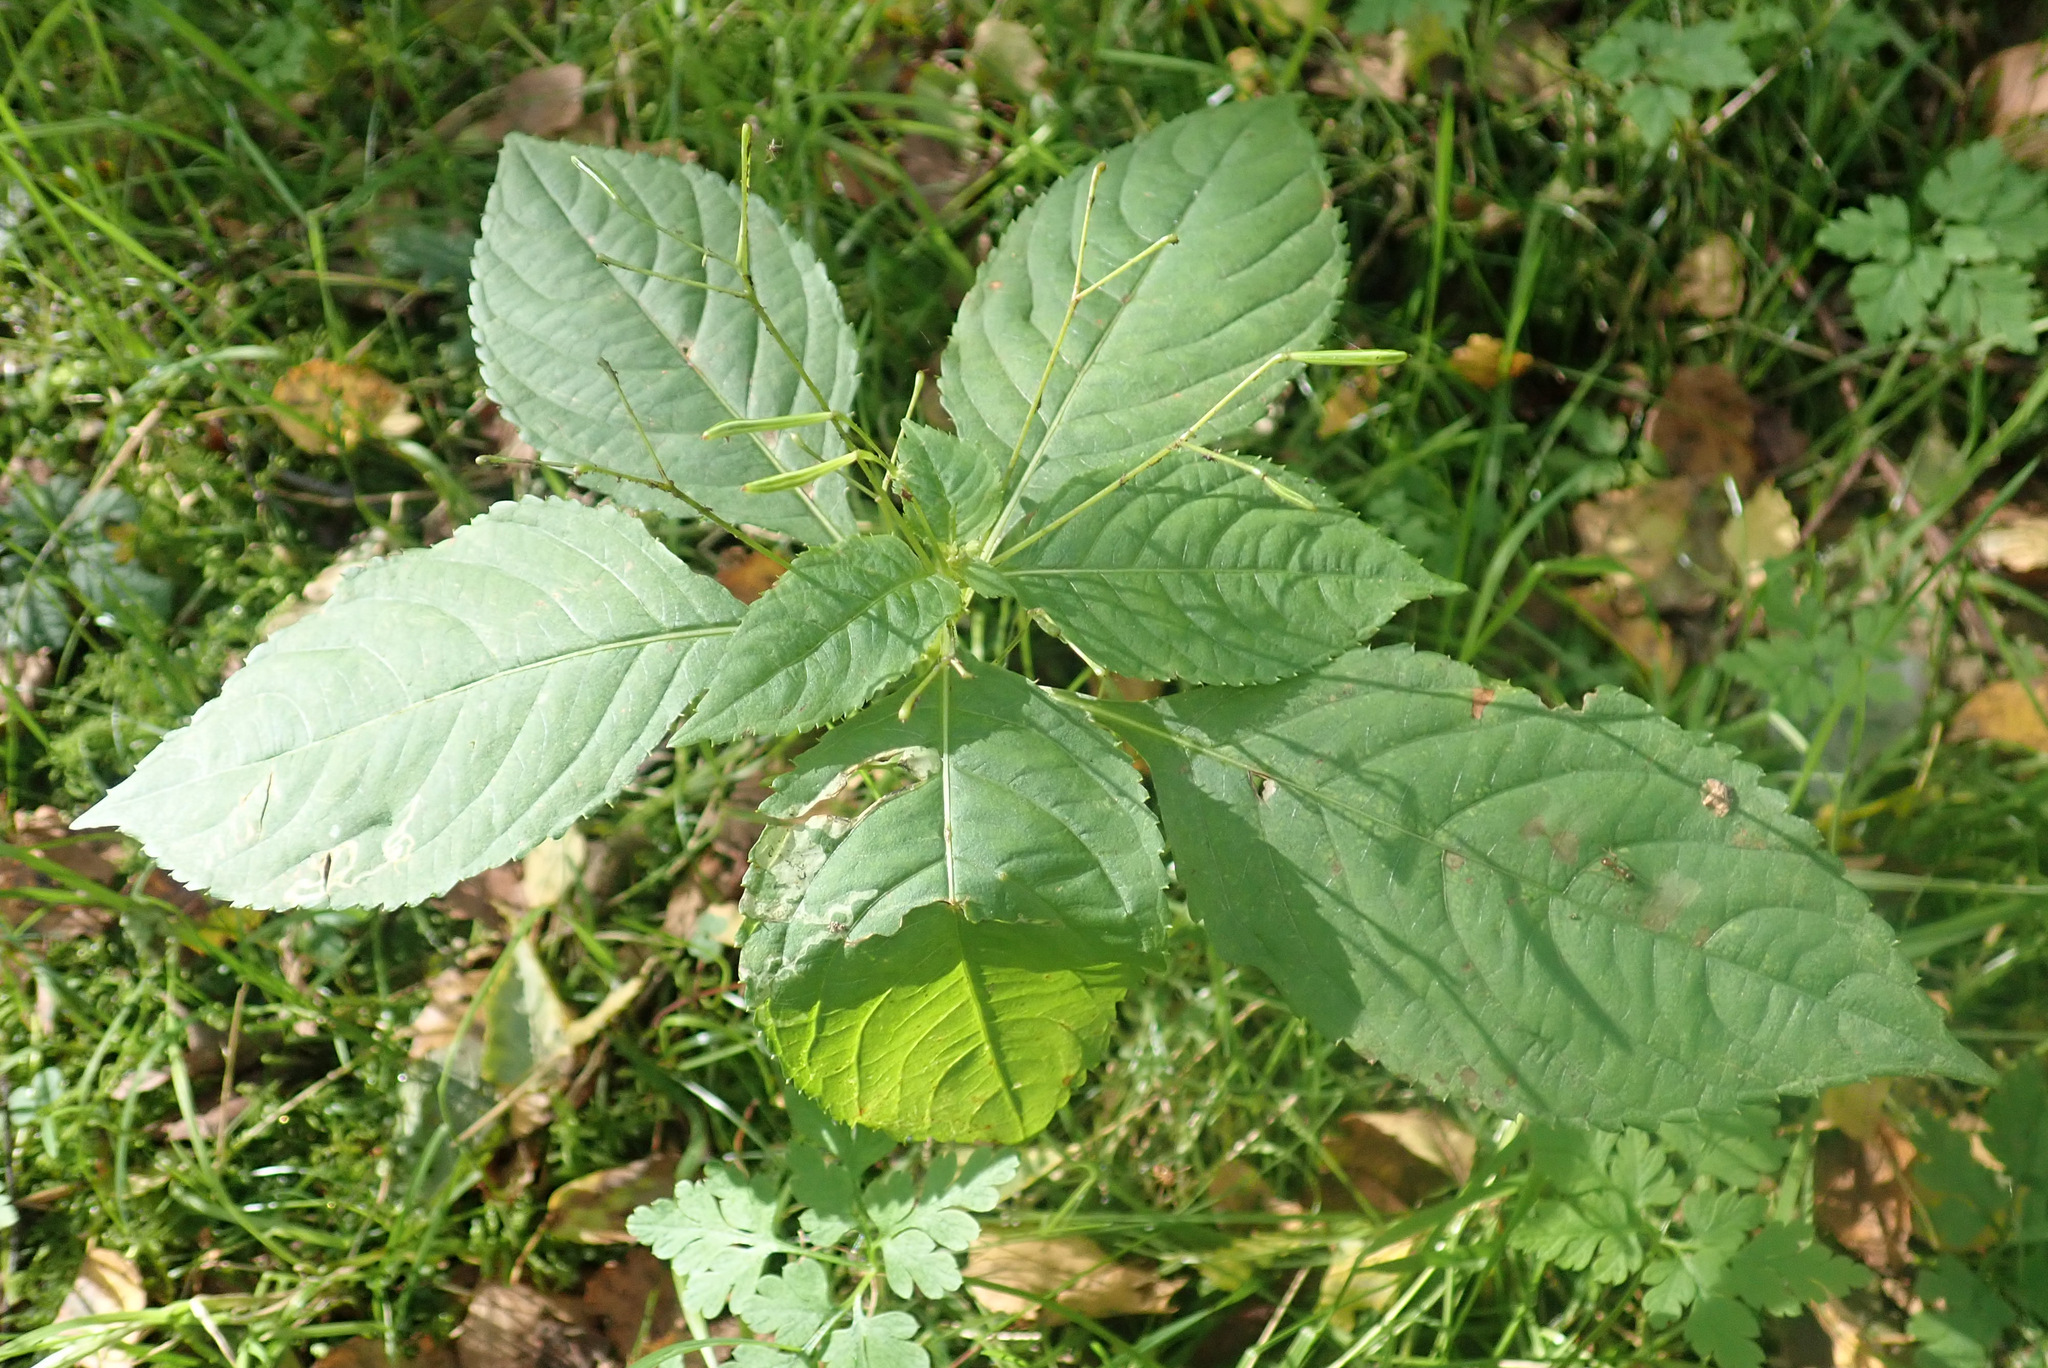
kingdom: Plantae
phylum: Tracheophyta
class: Magnoliopsida
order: Ericales
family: Balsaminaceae
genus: Impatiens
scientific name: Impatiens parviflora
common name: Small balsam
